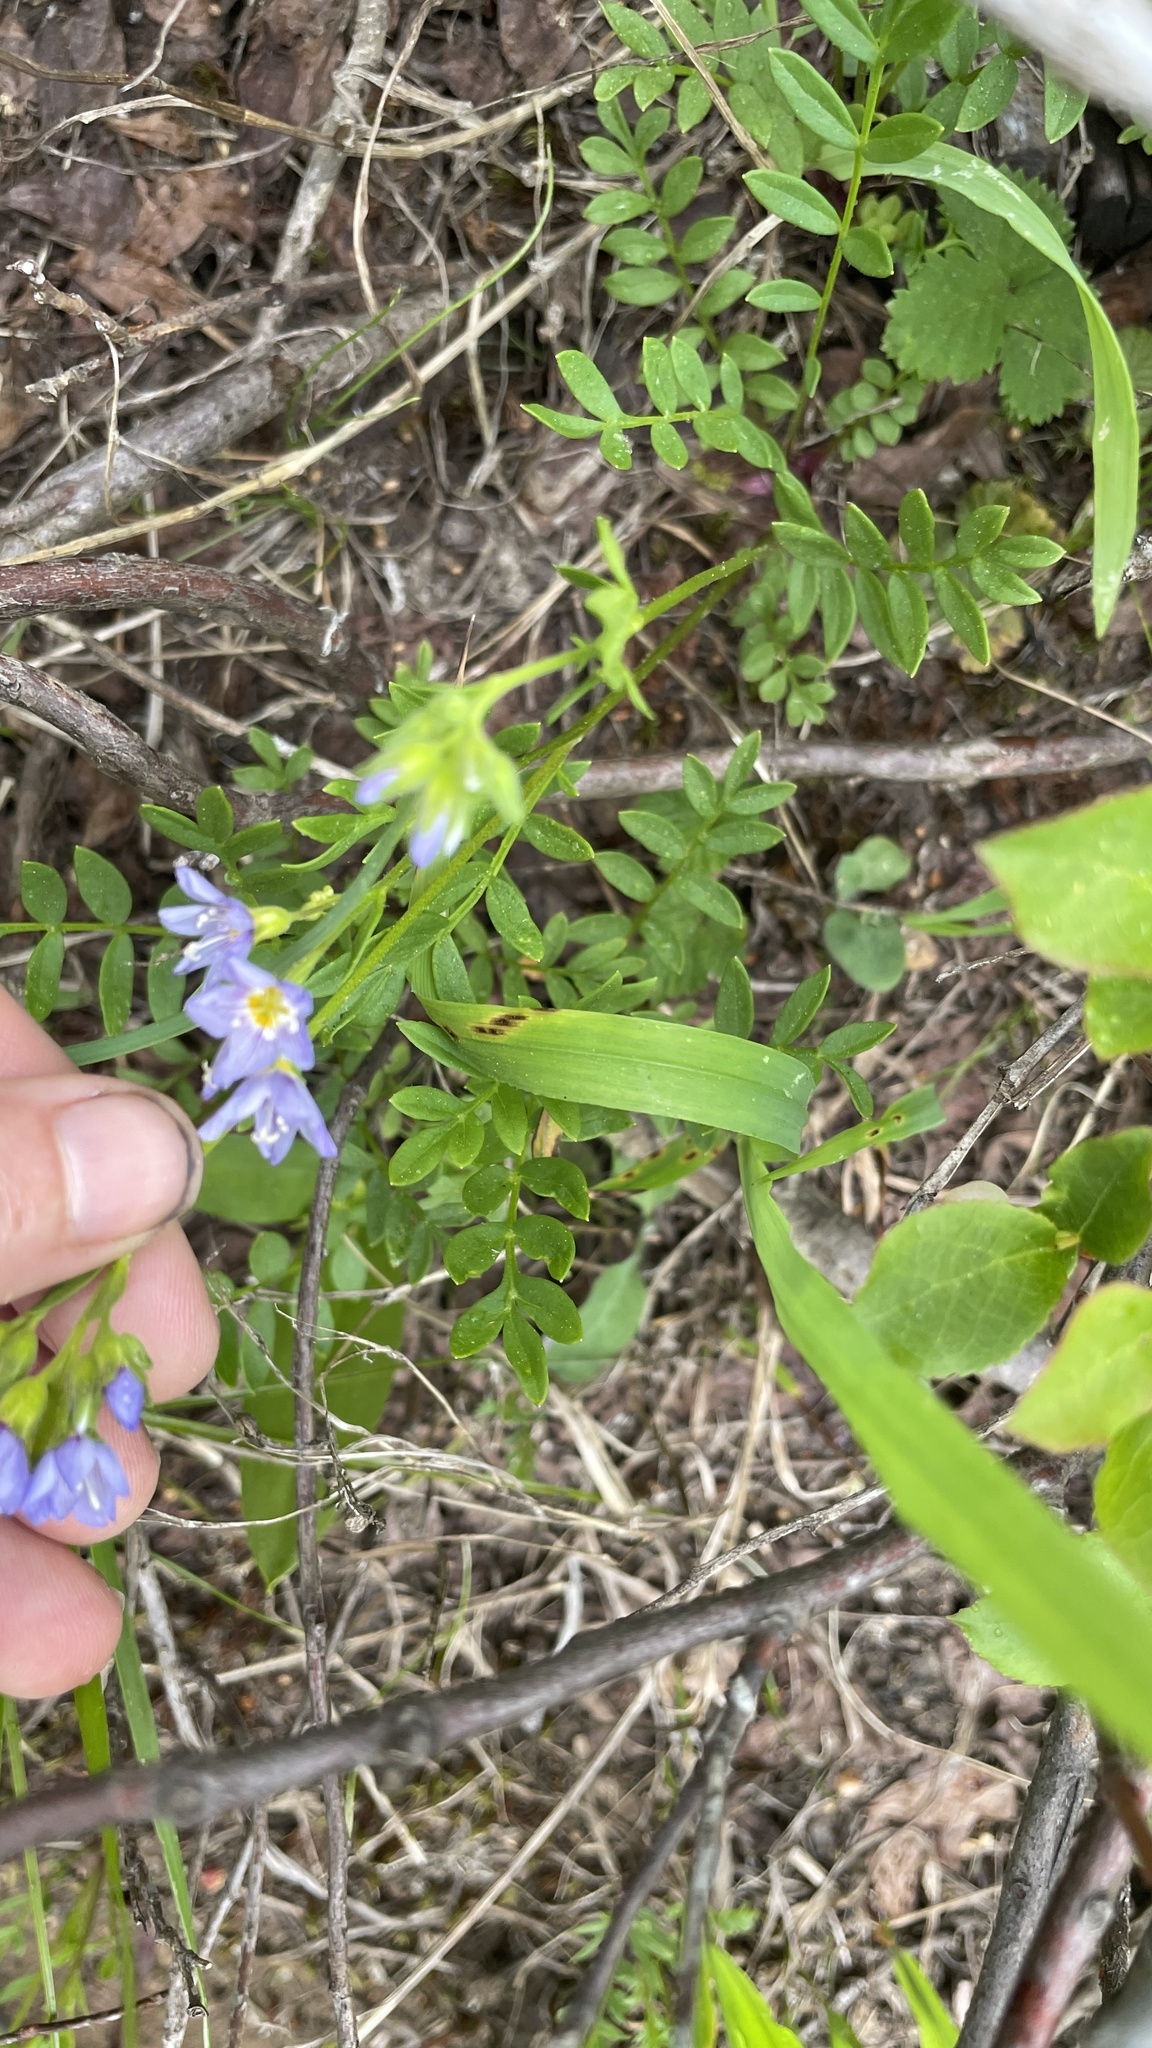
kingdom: Plantae
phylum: Tracheophyta
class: Magnoliopsida
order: Ericales
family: Polemoniaceae
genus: Polemonium
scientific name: Polemonium californicum
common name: California jacob's ladder
